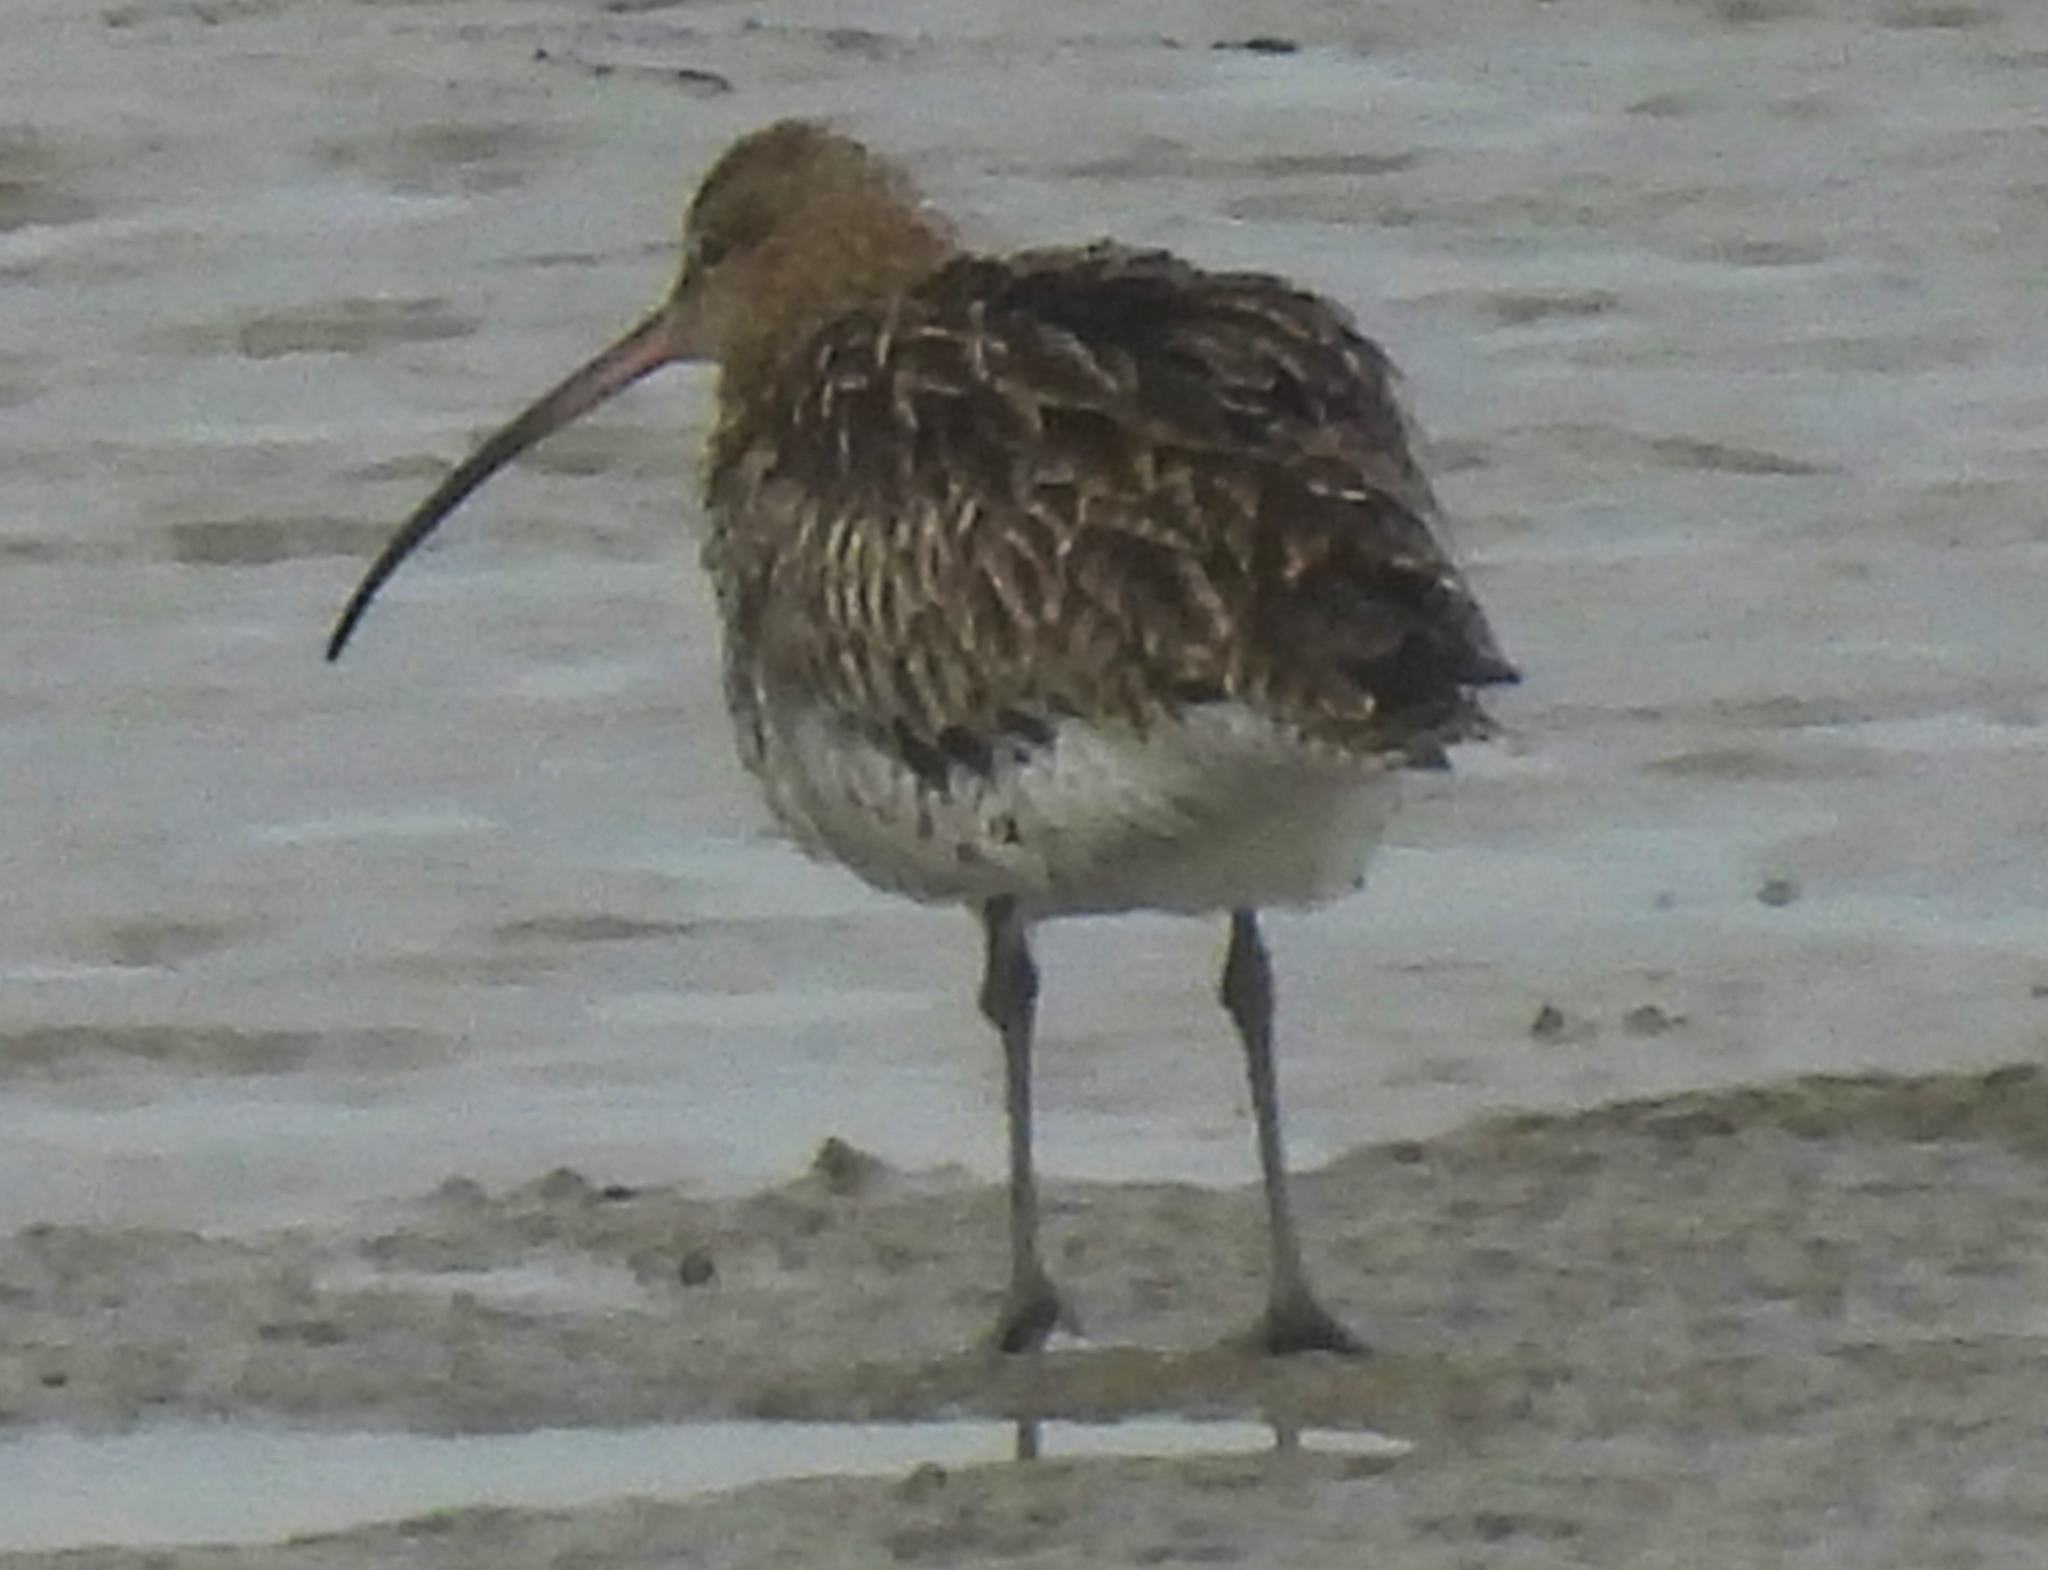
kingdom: Animalia
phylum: Chordata
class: Aves
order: Charadriiformes
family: Scolopacidae
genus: Numenius
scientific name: Numenius arquata
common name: Eurasian curlew
